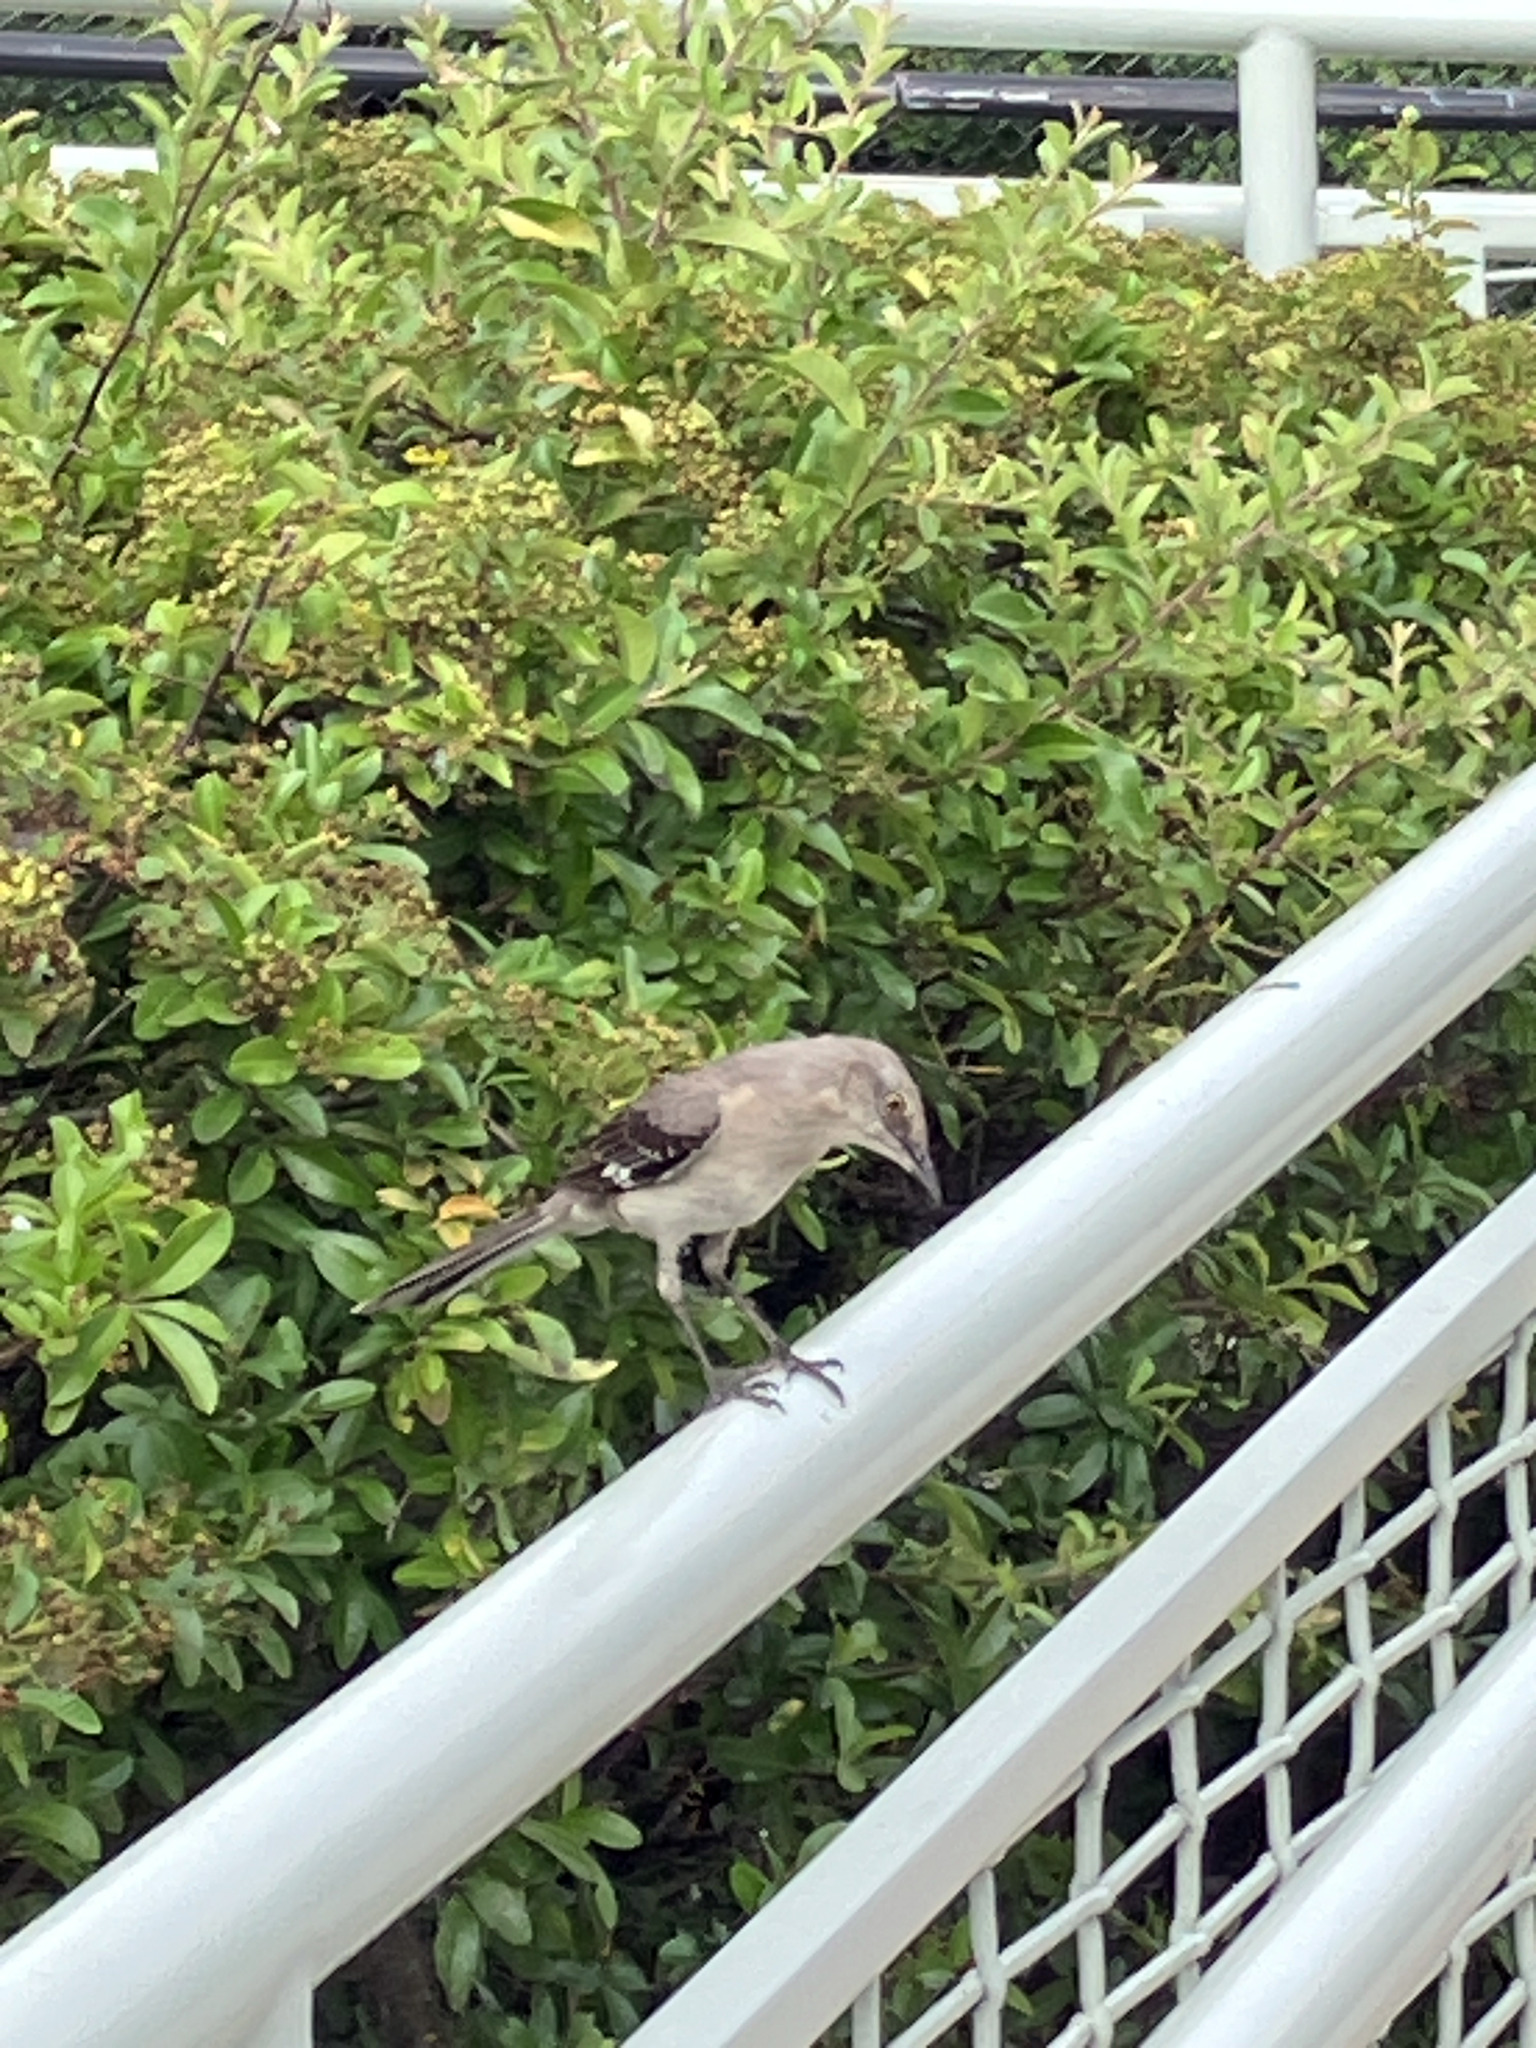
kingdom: Animalia
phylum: Chordata
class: Aves
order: Passeriformes
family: Mimidae
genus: Mimus
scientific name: Mimus polyglottos
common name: Northern mockingbird
